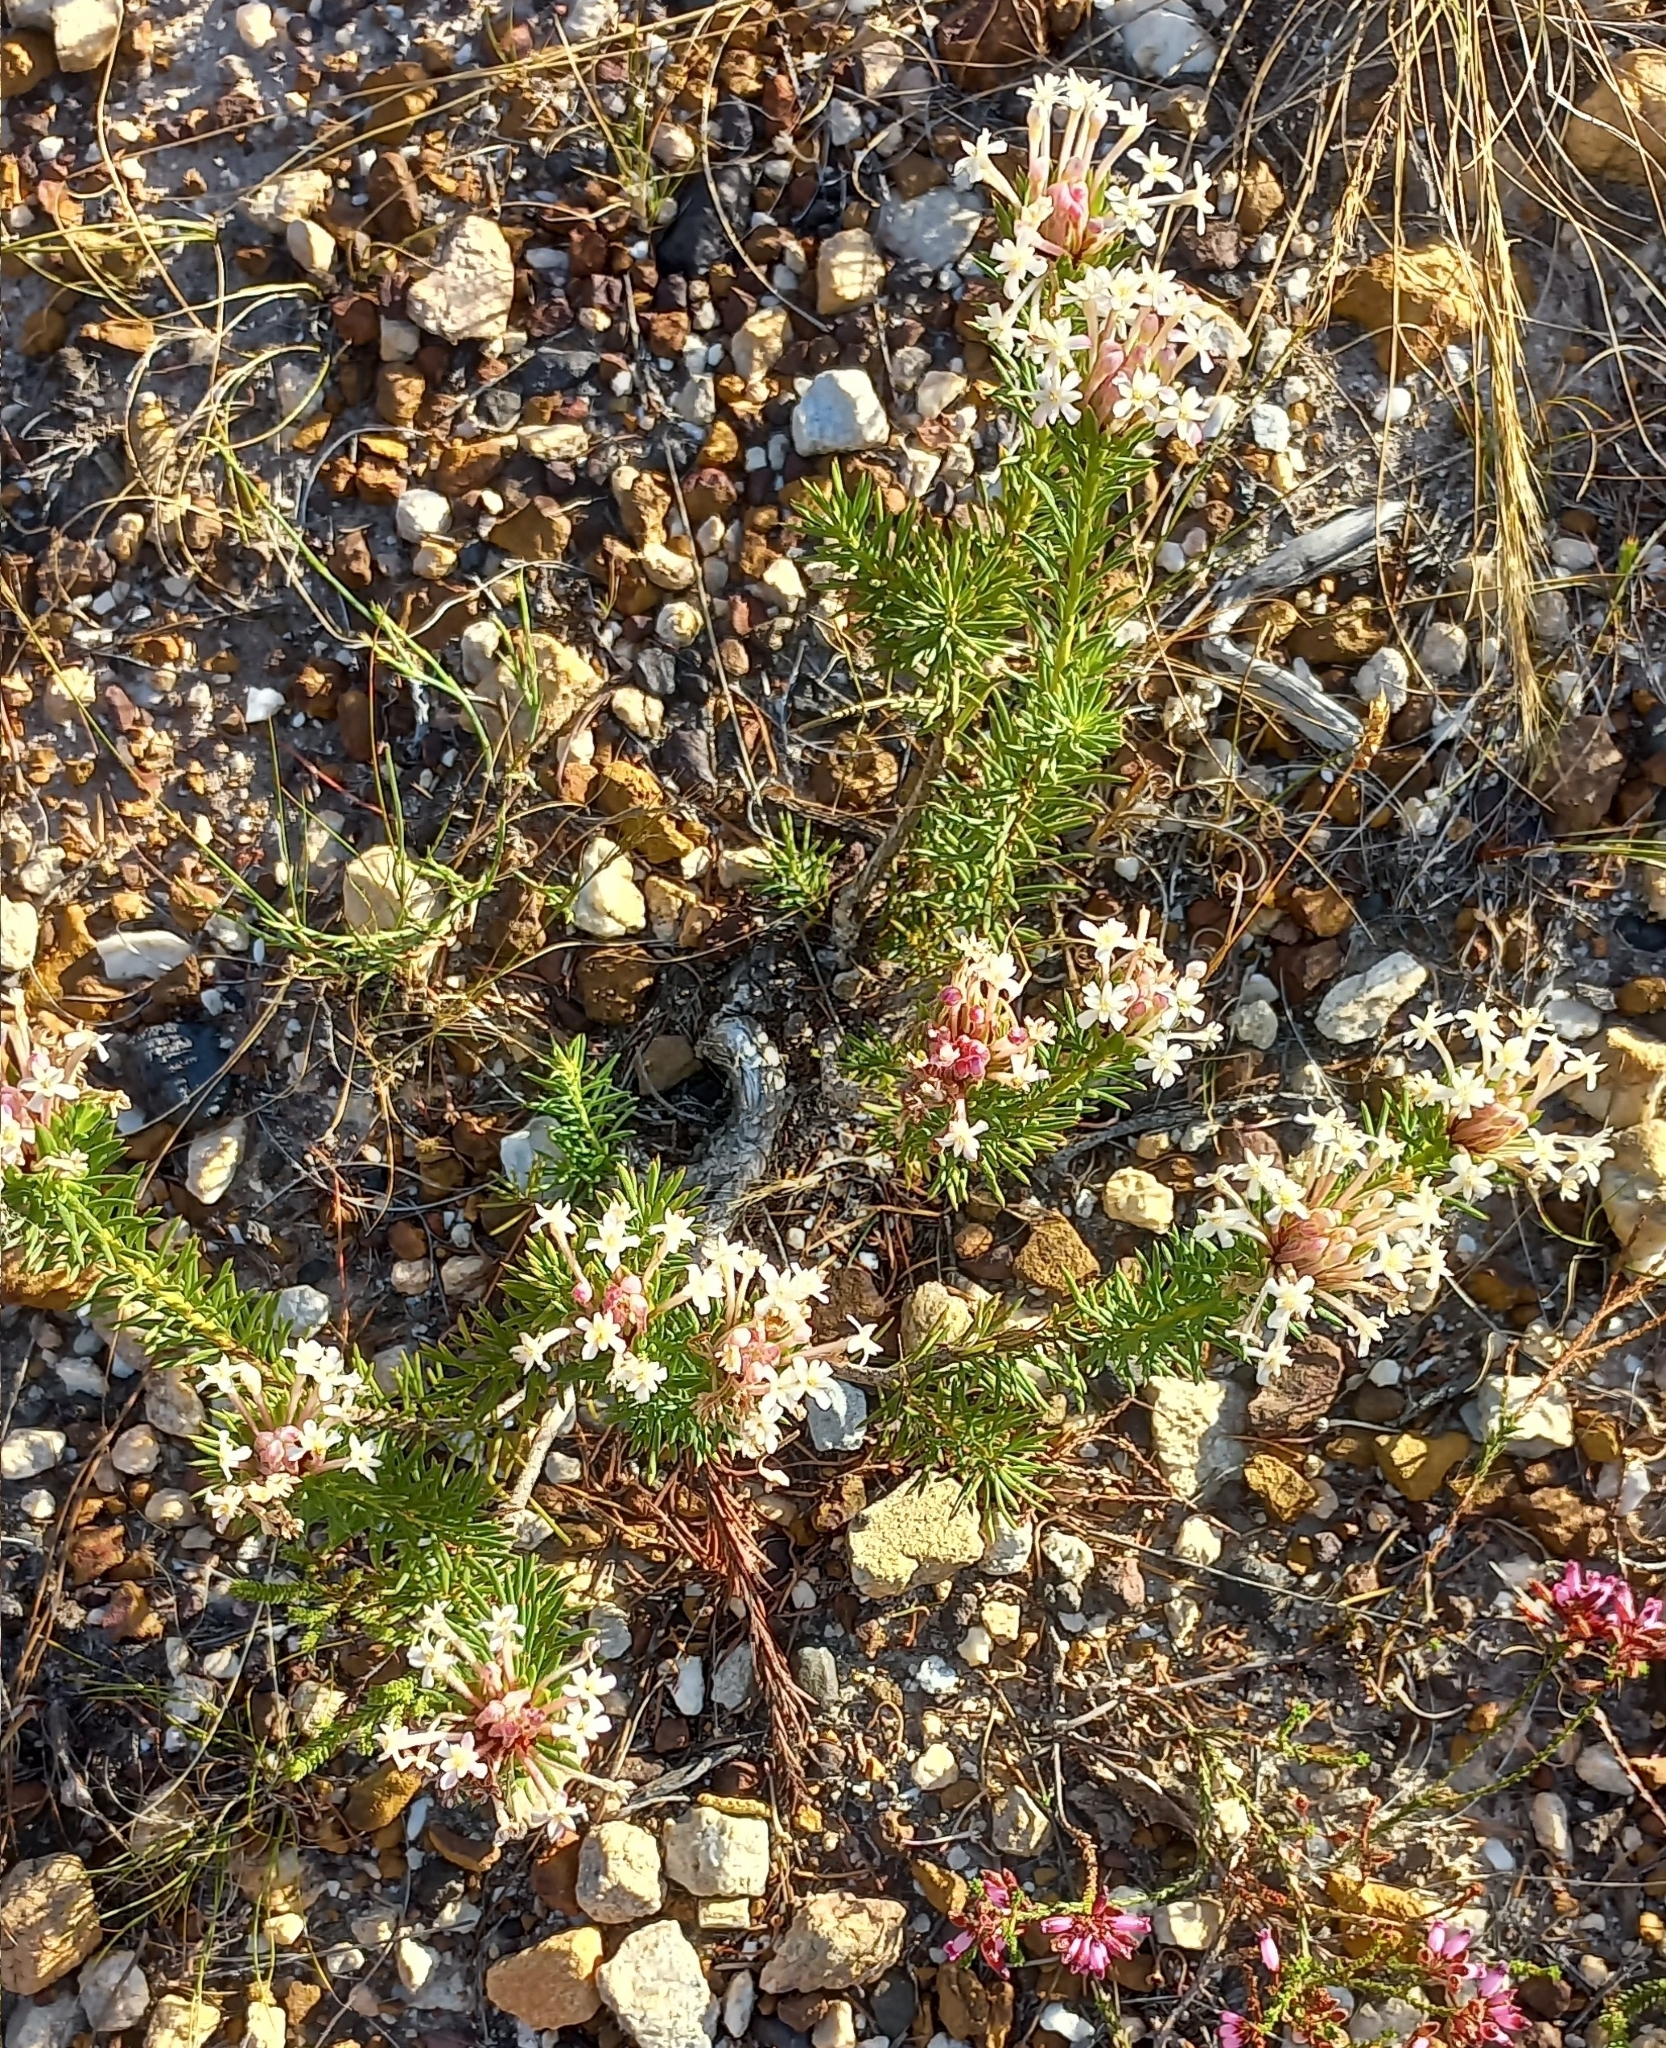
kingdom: Plantae
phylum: Tracheophyta
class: Magnoliopsida
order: Malvales
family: Thymelaeaceae
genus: Gnidia
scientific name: Gnidia pinifolia
